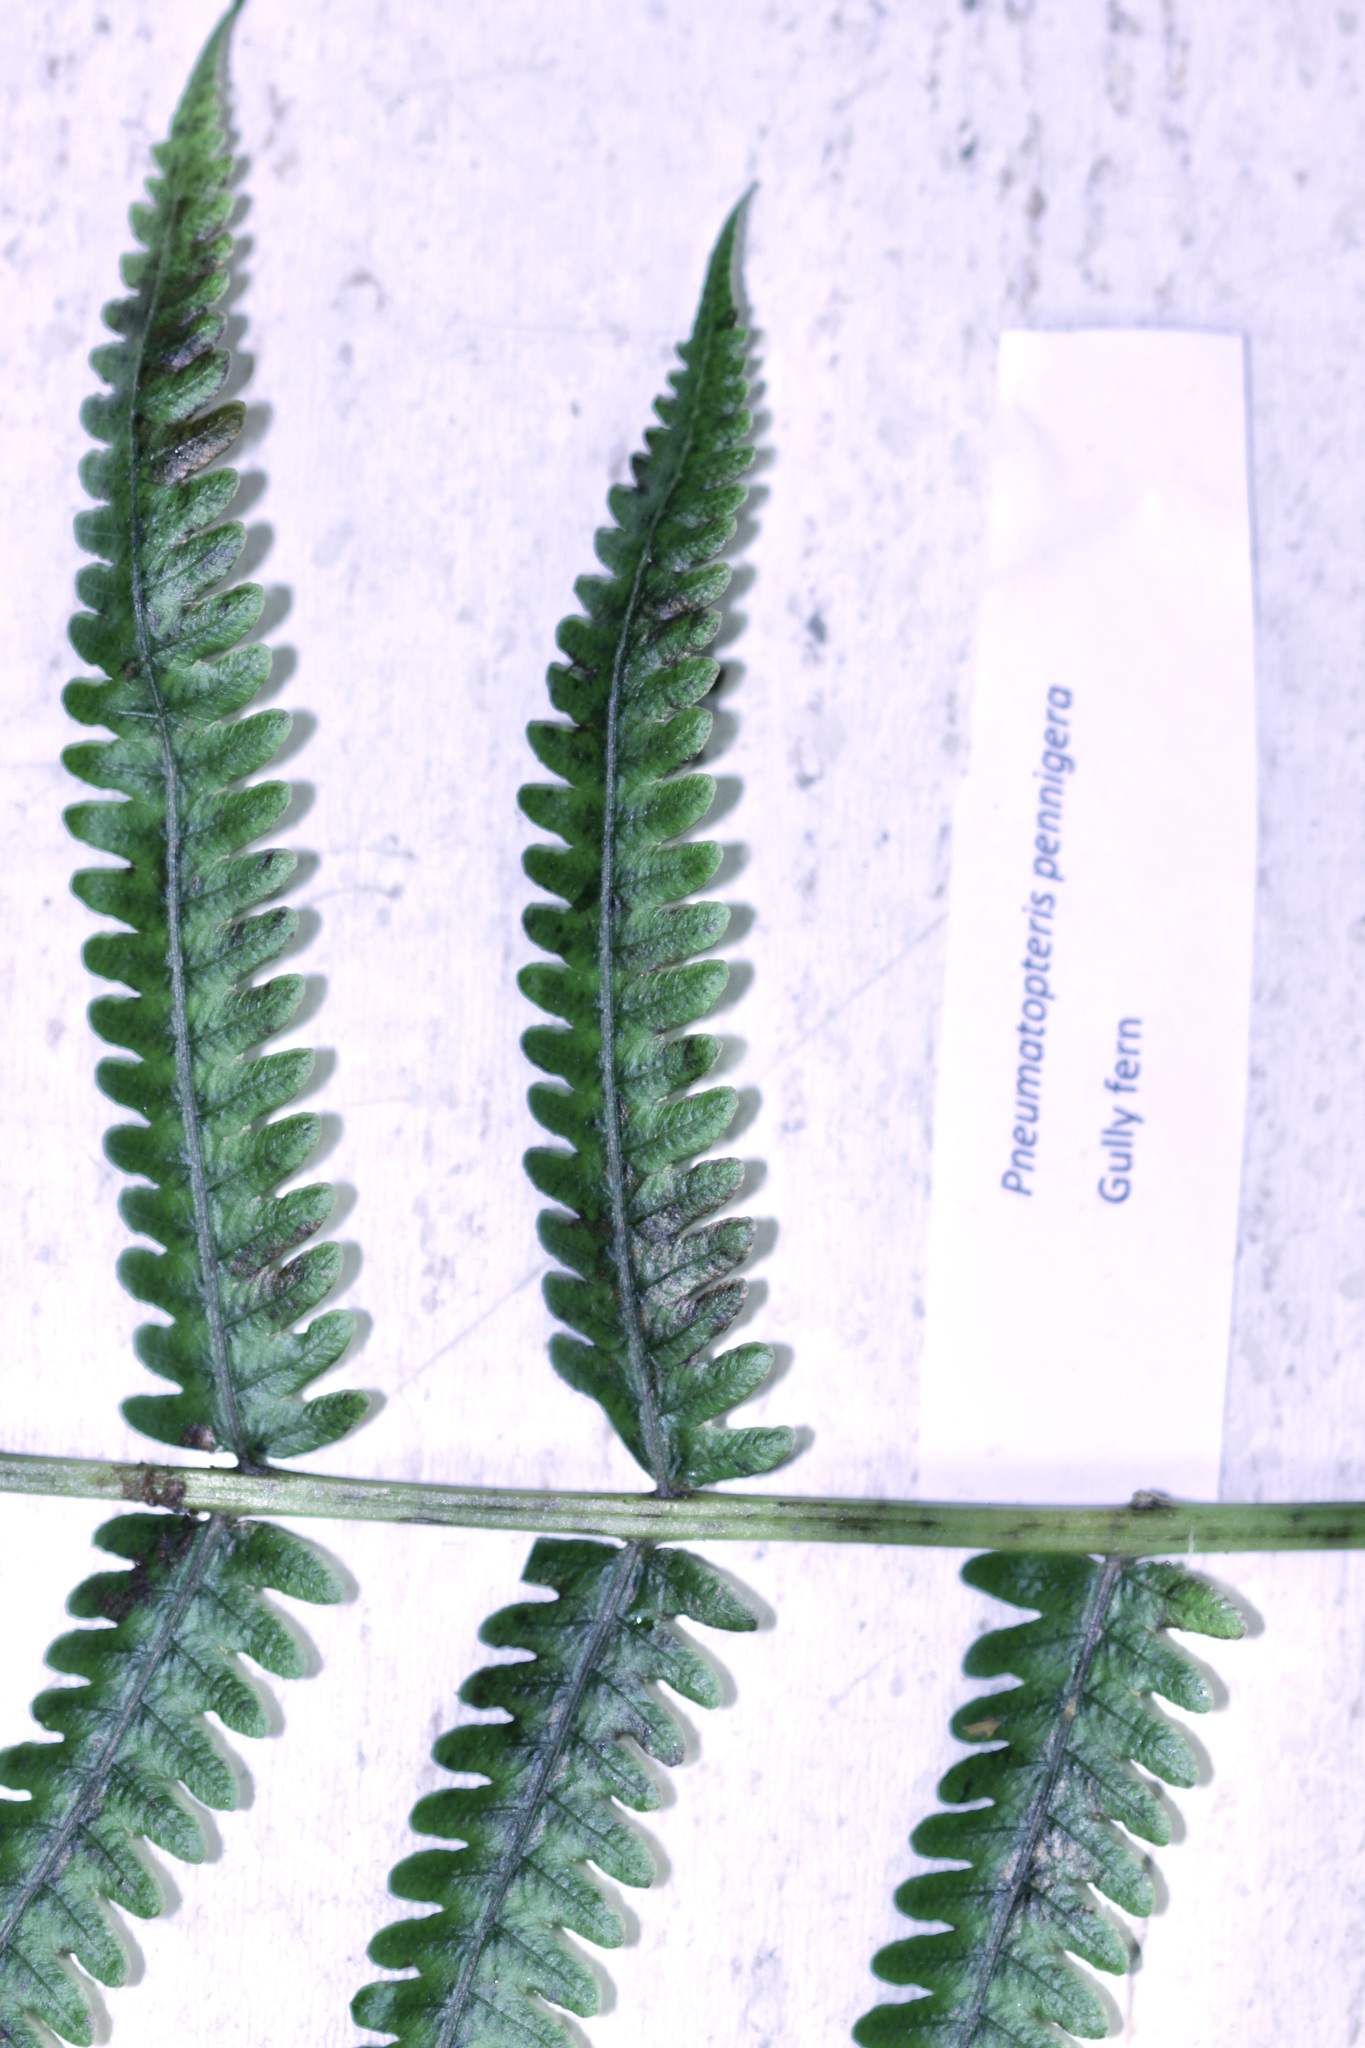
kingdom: Plantae
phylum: Tracheophyta
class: Polypodiopsida
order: Polypodiales
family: Thelypteridaceae
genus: Pakau
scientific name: Pakau pennigera
